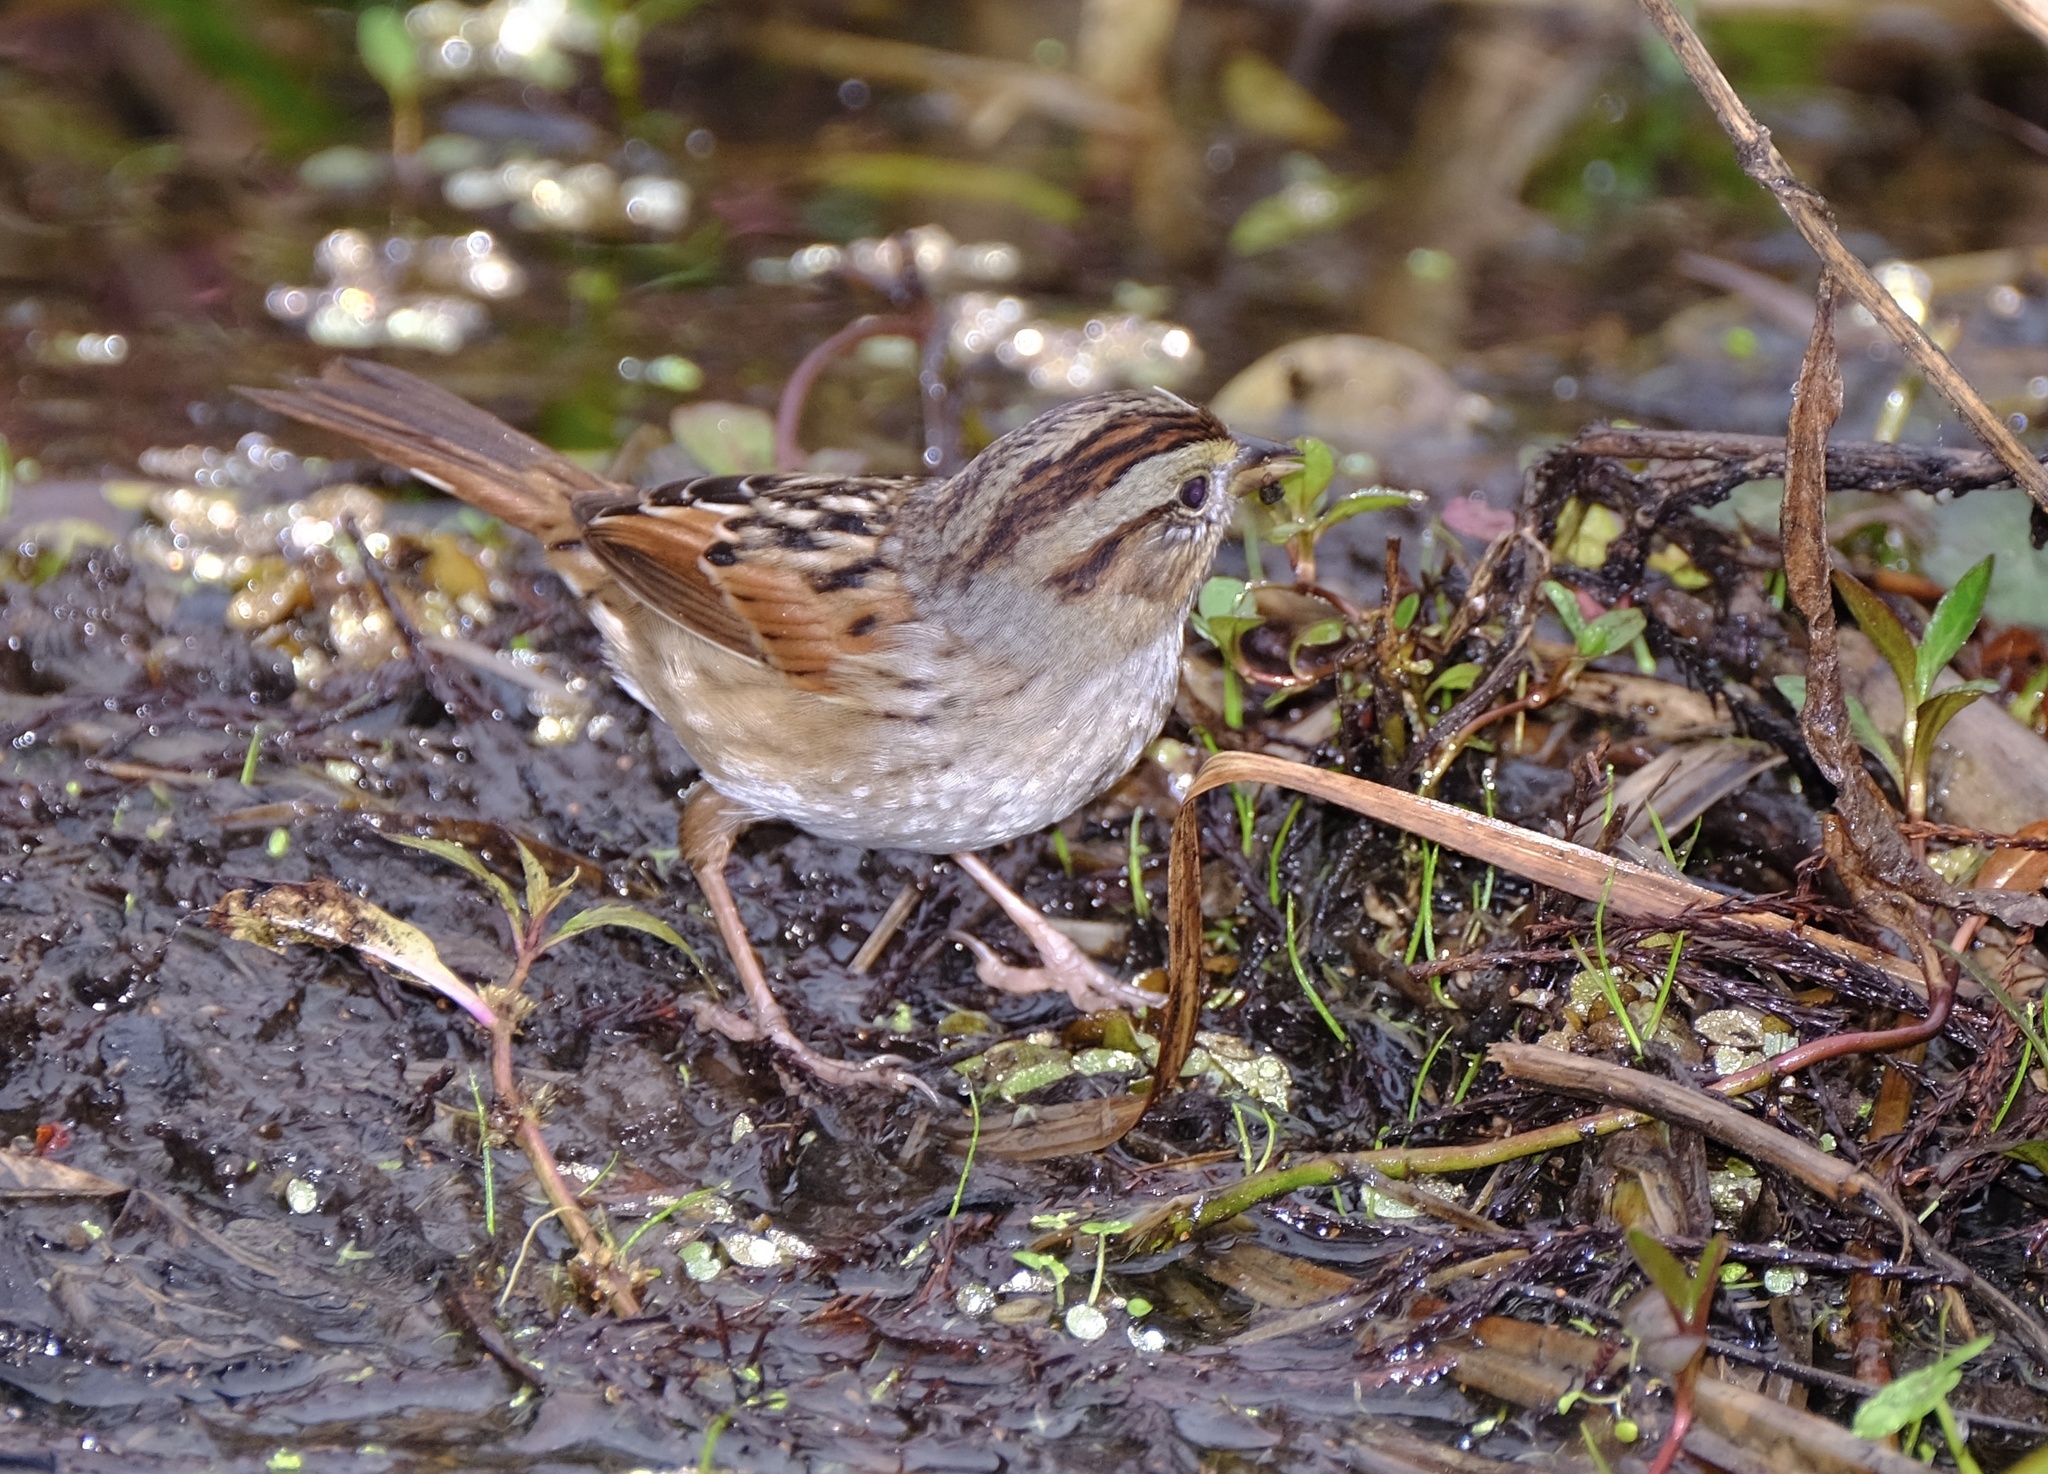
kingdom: Animalia
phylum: Chordata
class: Aves
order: Passeriformes
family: Passerellidae
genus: Melospiza
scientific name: Melospiza georgiana
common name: Swamp sparrow
